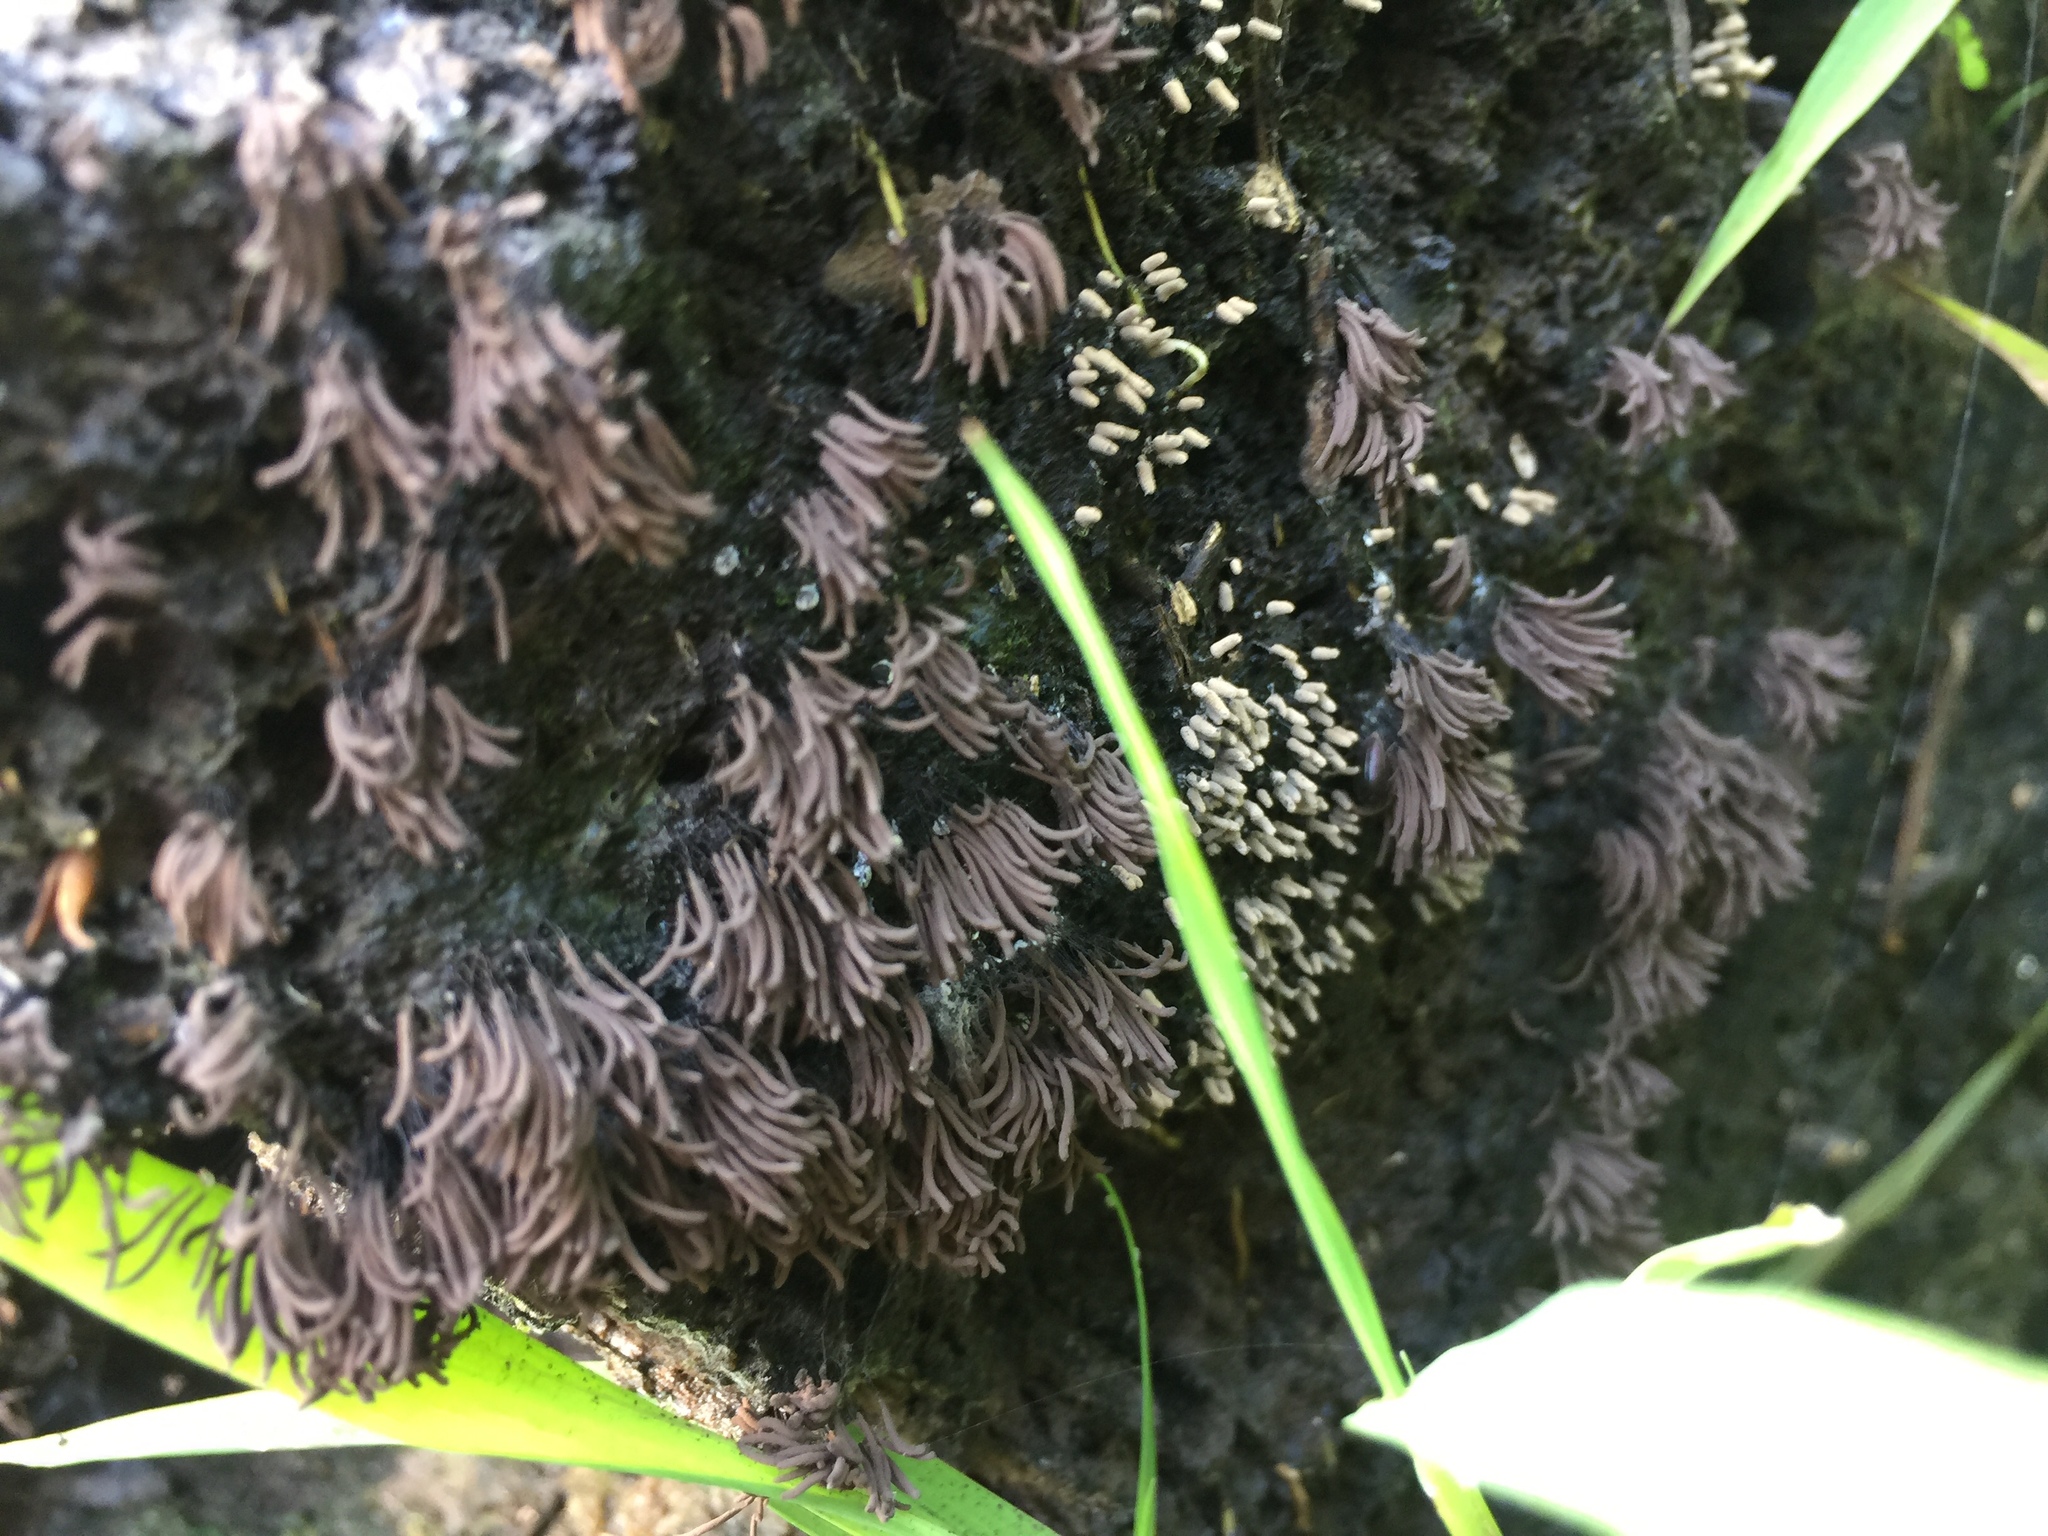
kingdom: Protozoa
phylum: Mycetozoa
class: Myxomycetes
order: Stemonitidales
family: Stemonitidaceae
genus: Stemonitis
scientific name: Stemonitis splendens
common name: Chocolate tube slime
